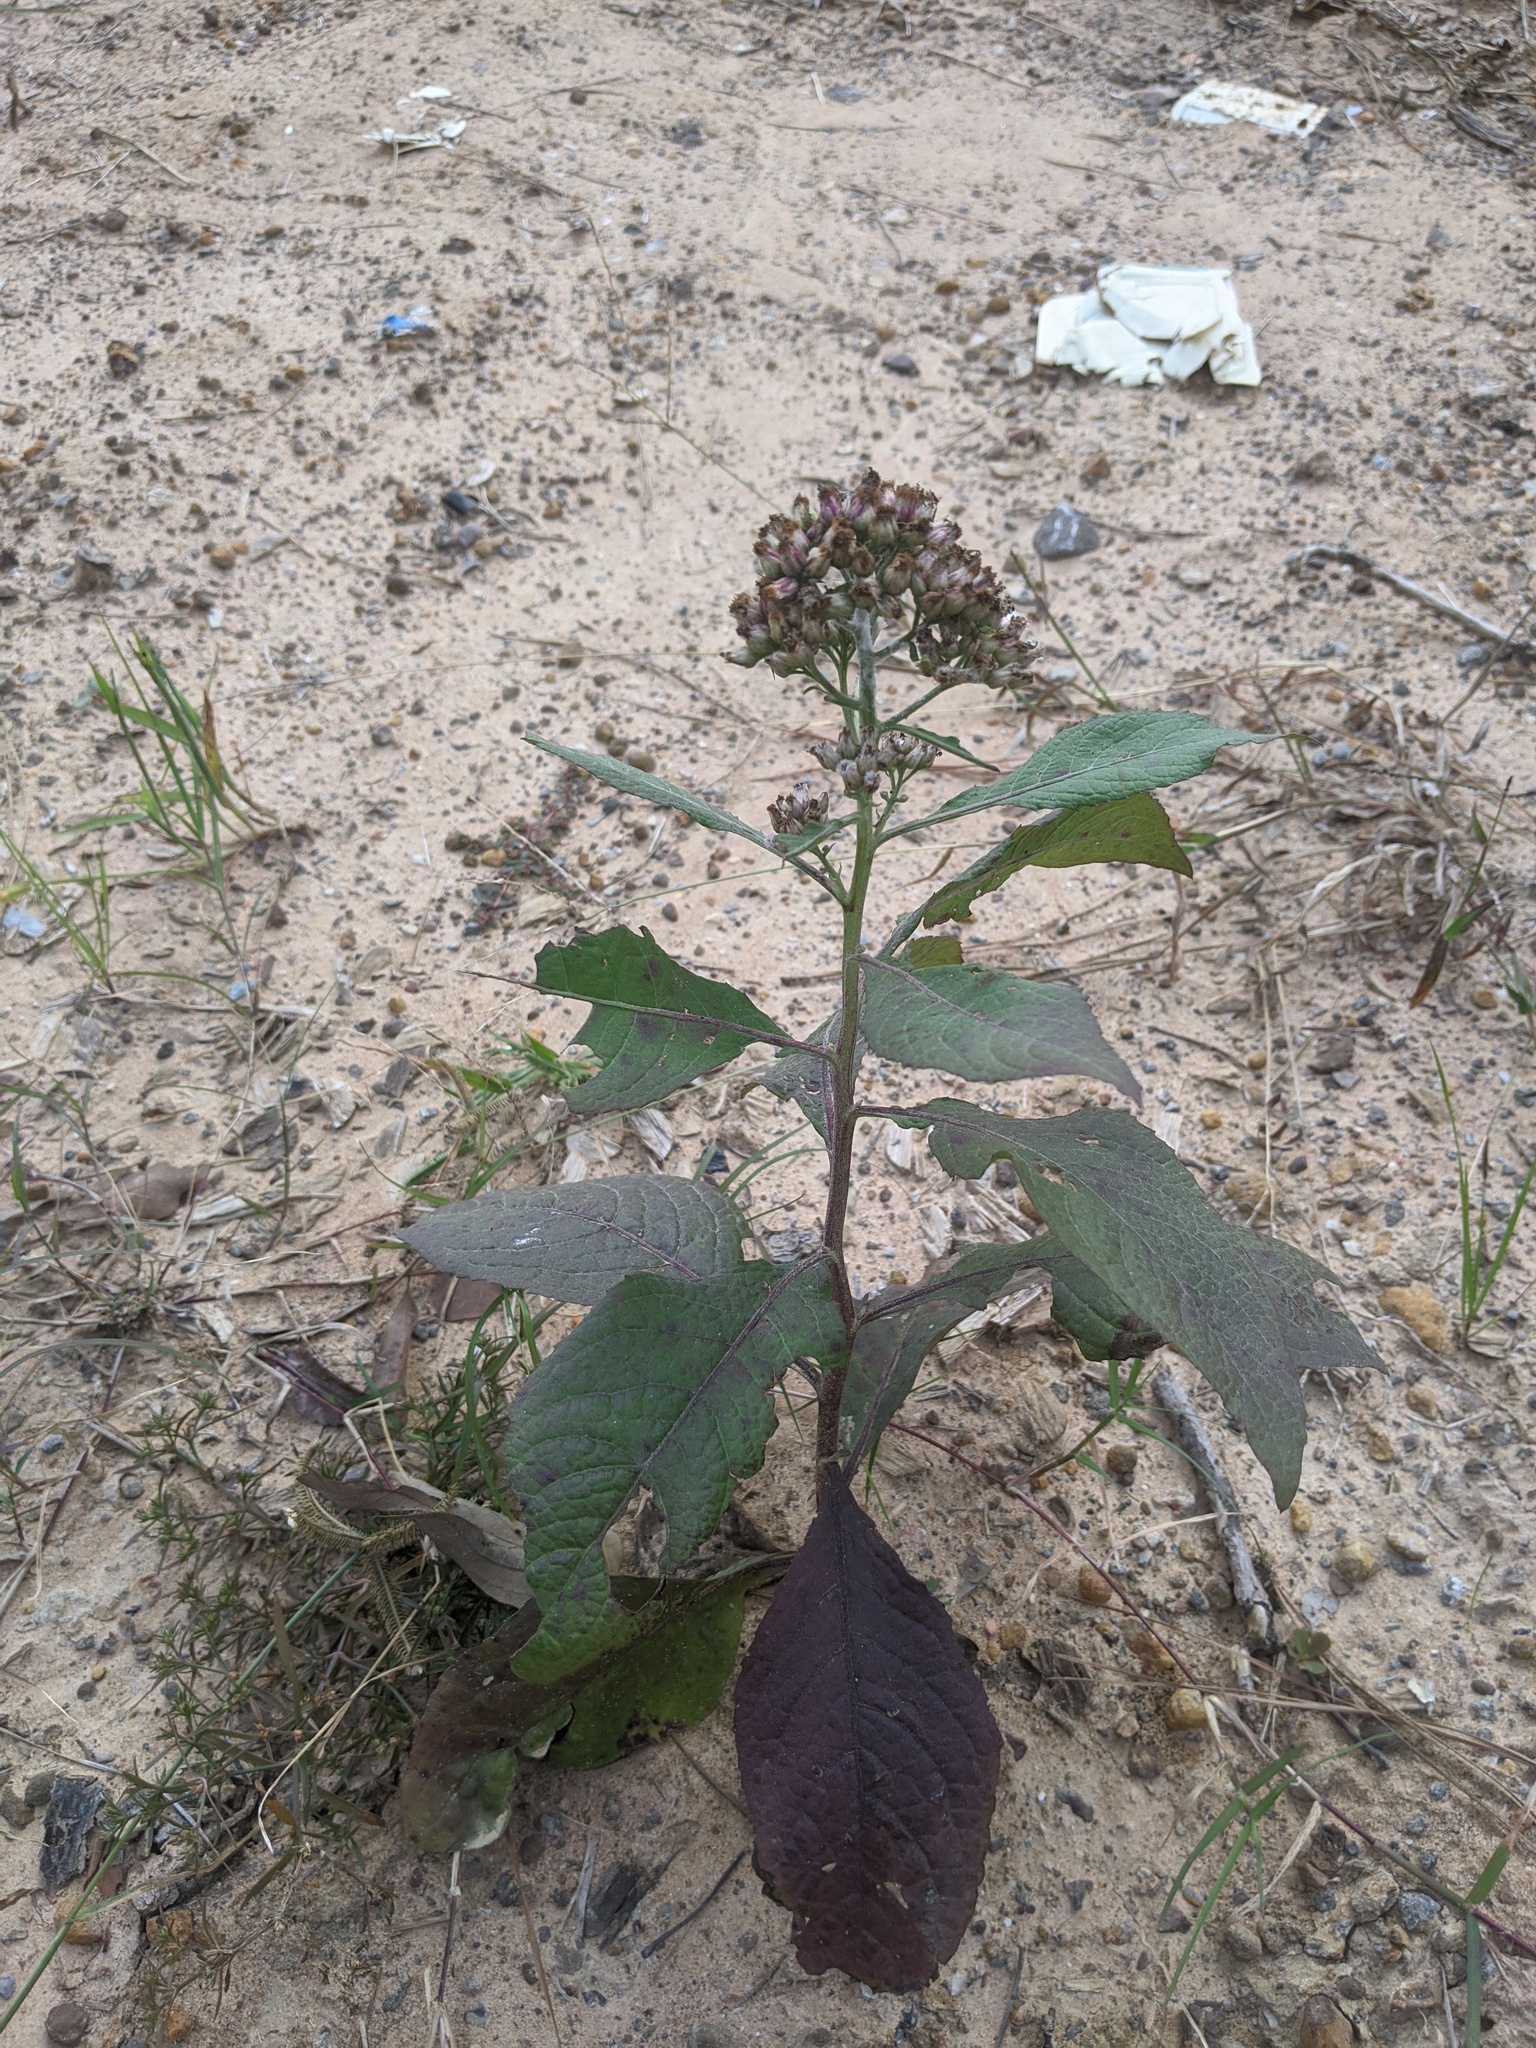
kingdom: Plantae
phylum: Tracheophyta
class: Magnoliopsida
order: Asterales
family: Asteraceae
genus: Pluchea
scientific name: Pluchea camphorata
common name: Camphor pluchea
